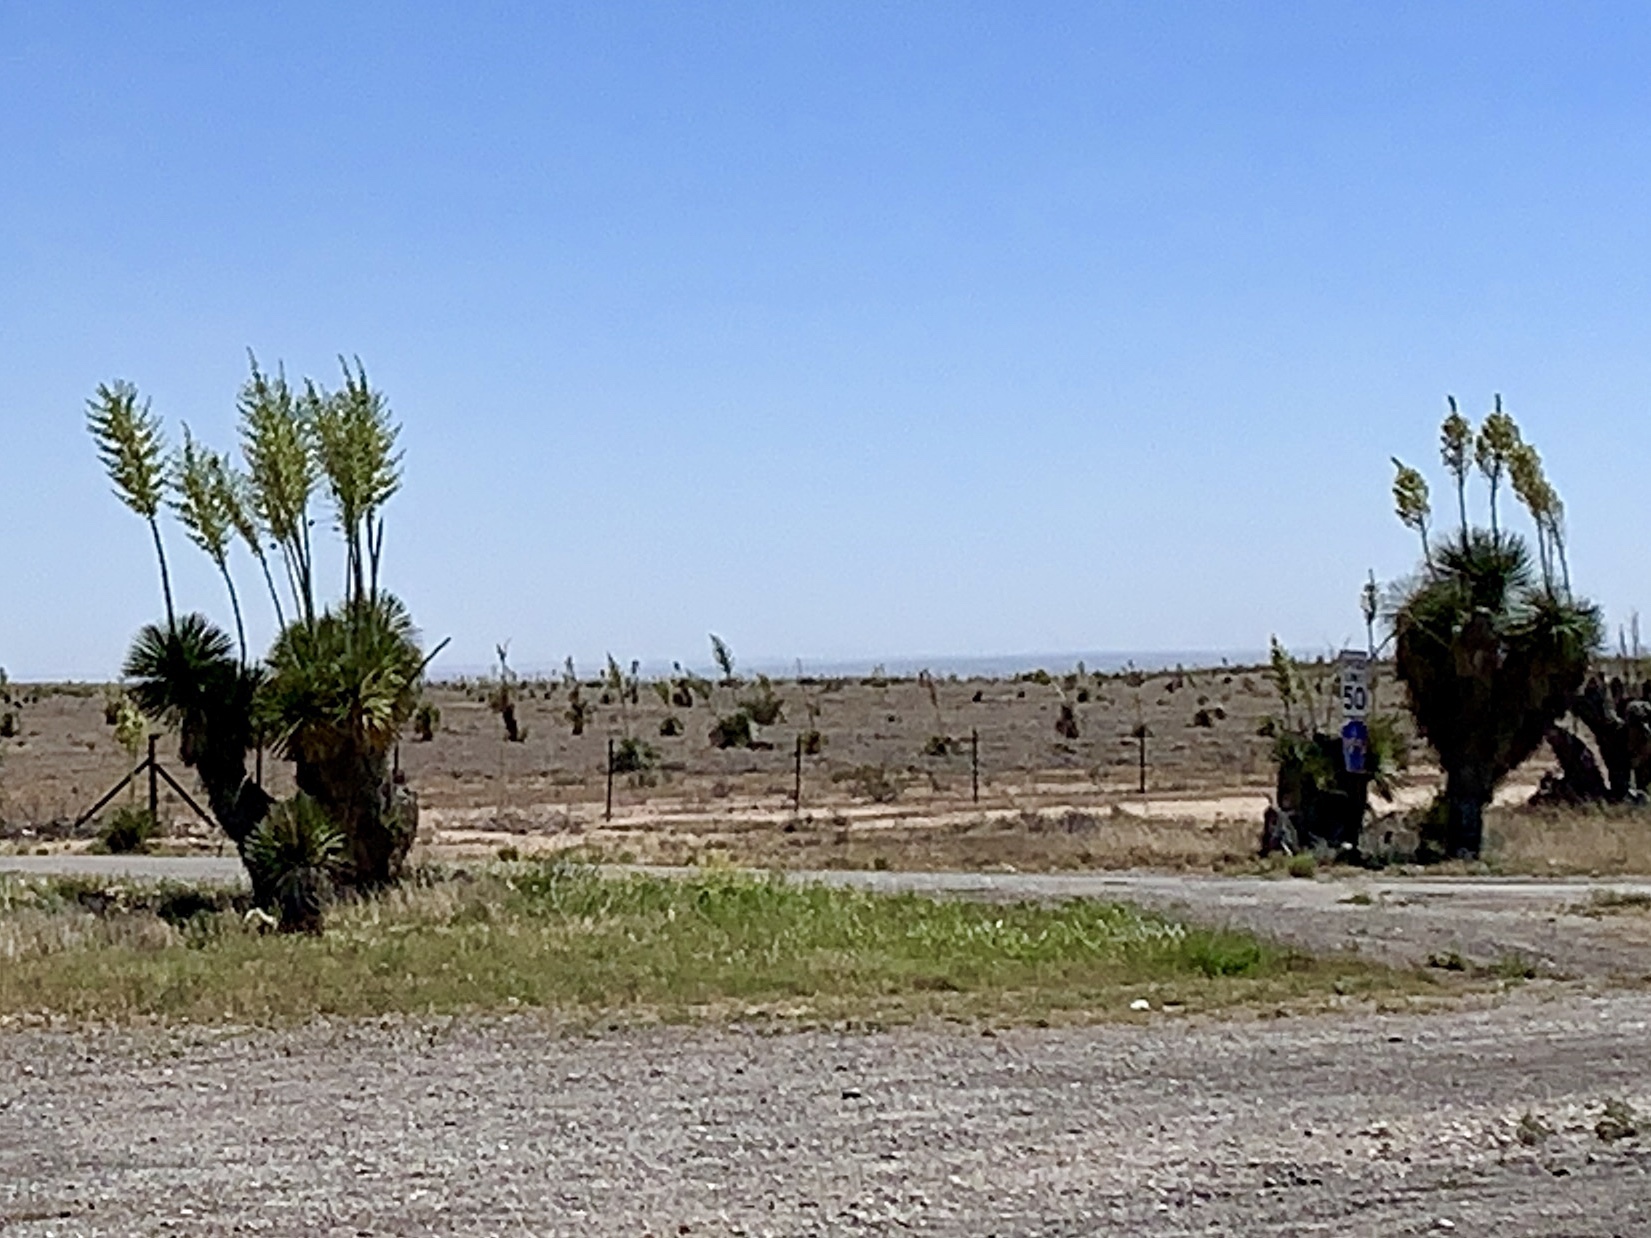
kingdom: Plantae
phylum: Tracheophyta
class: Liliopsida
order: Asparagales
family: Asparagaceae
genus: Yucca
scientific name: Yucca elata
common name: Palmella
